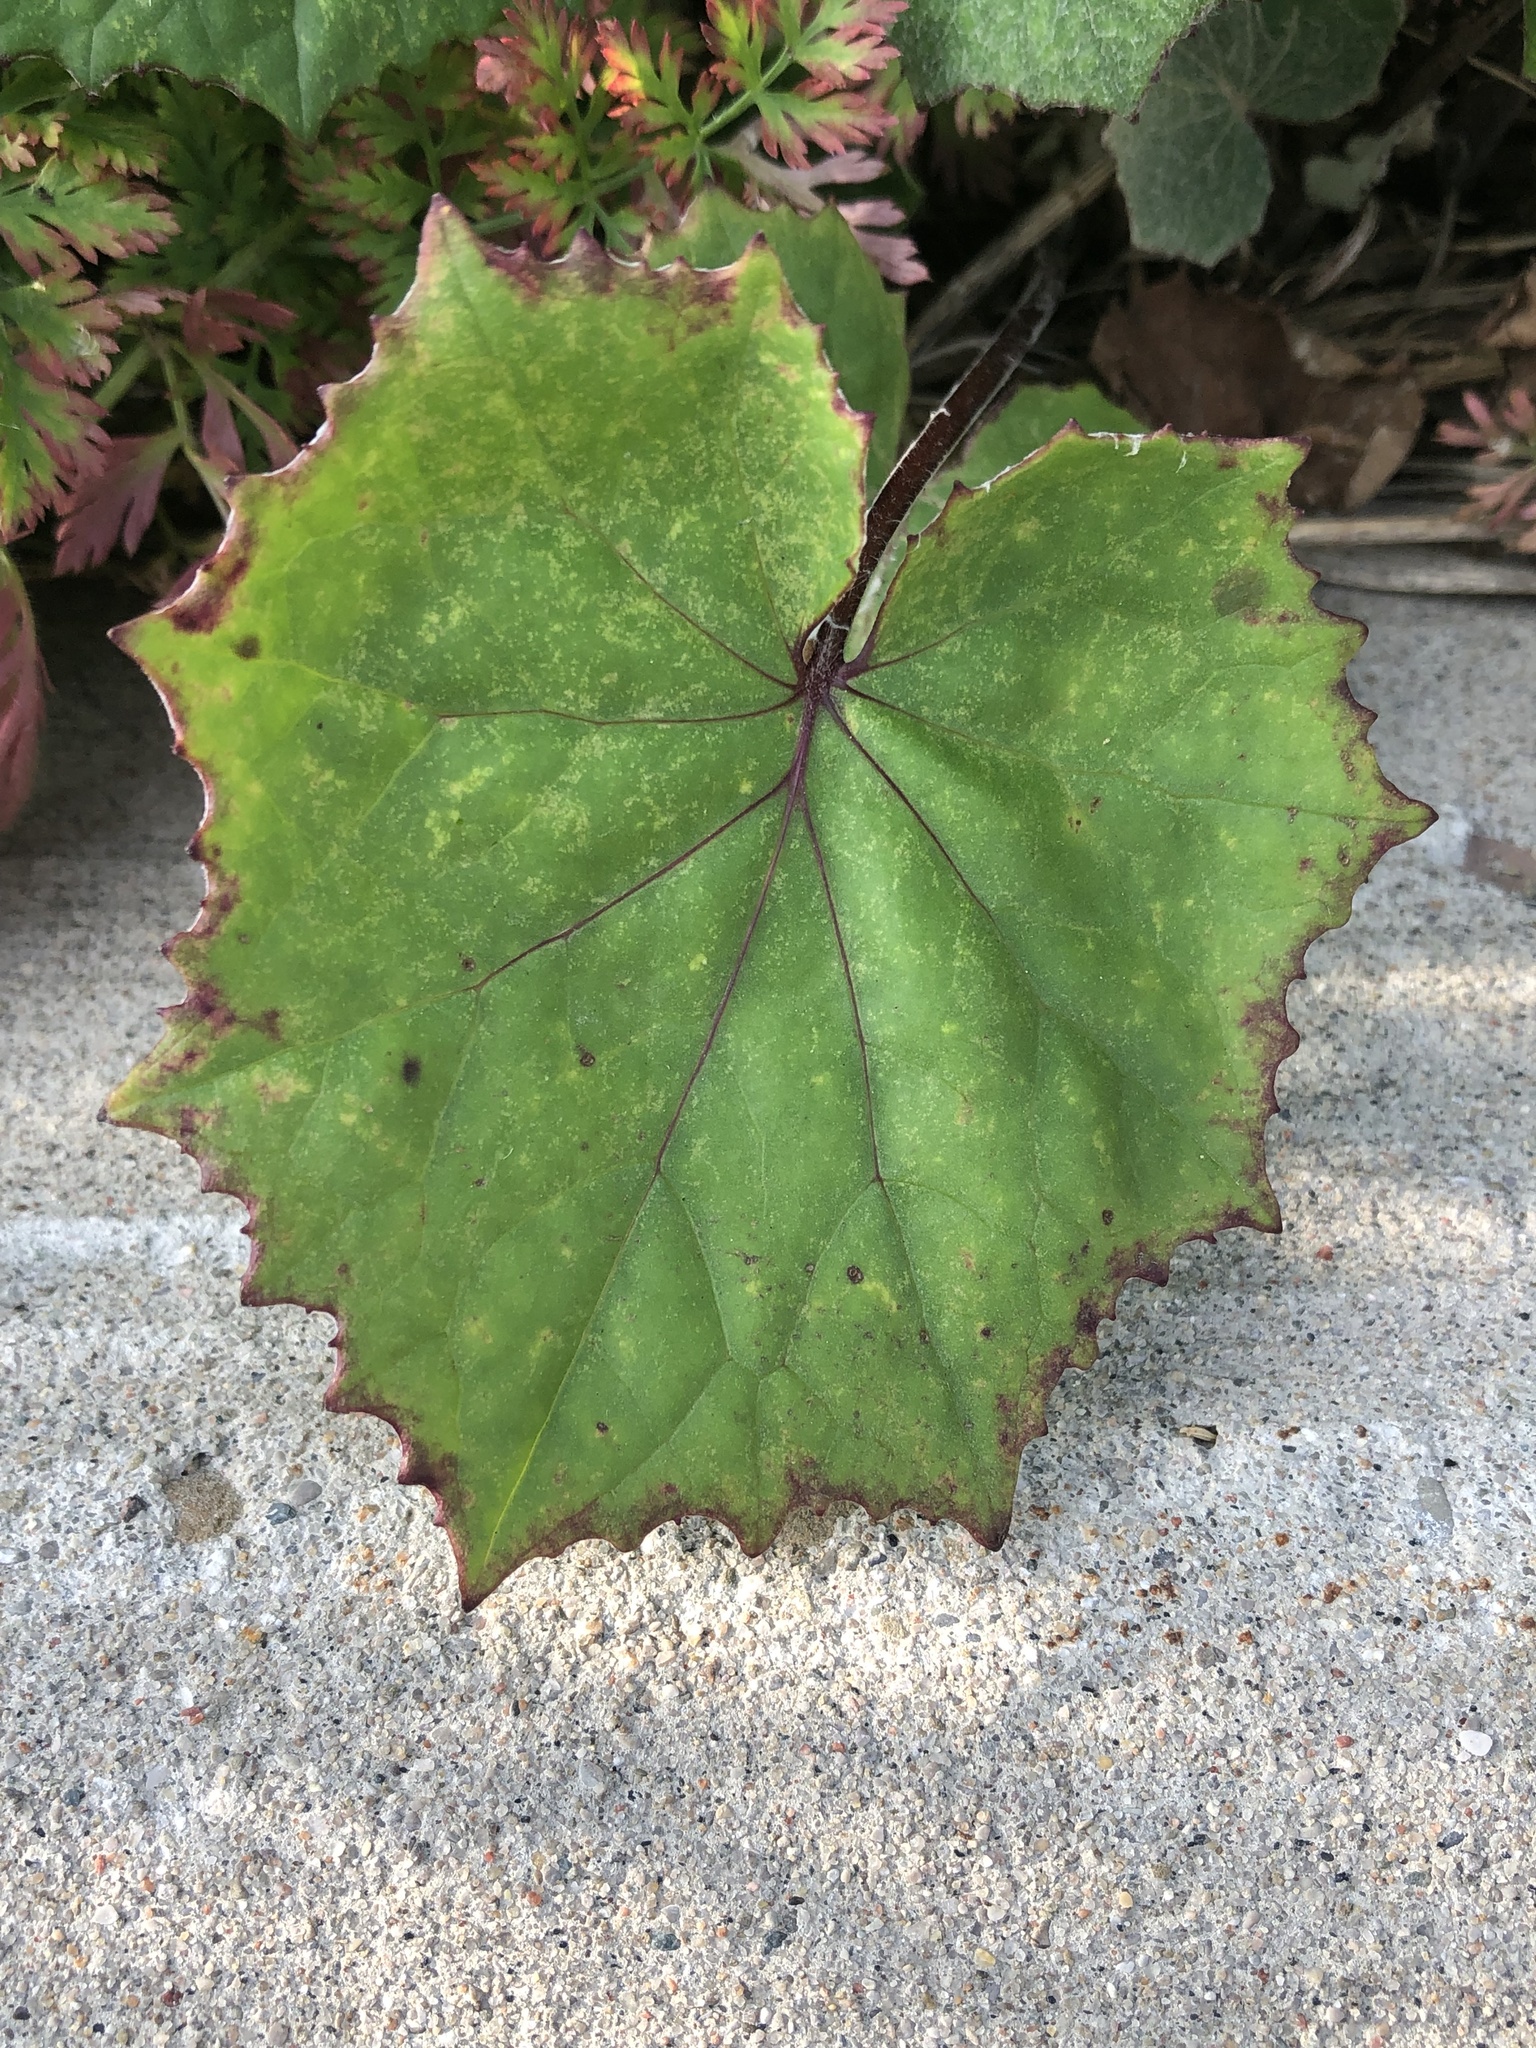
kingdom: Plantae
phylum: Tracheophyta
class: Magnoliopsida
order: Asterales
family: Asteraceae
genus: Tussilago
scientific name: Tussilago farfara
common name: Coltsfoot
